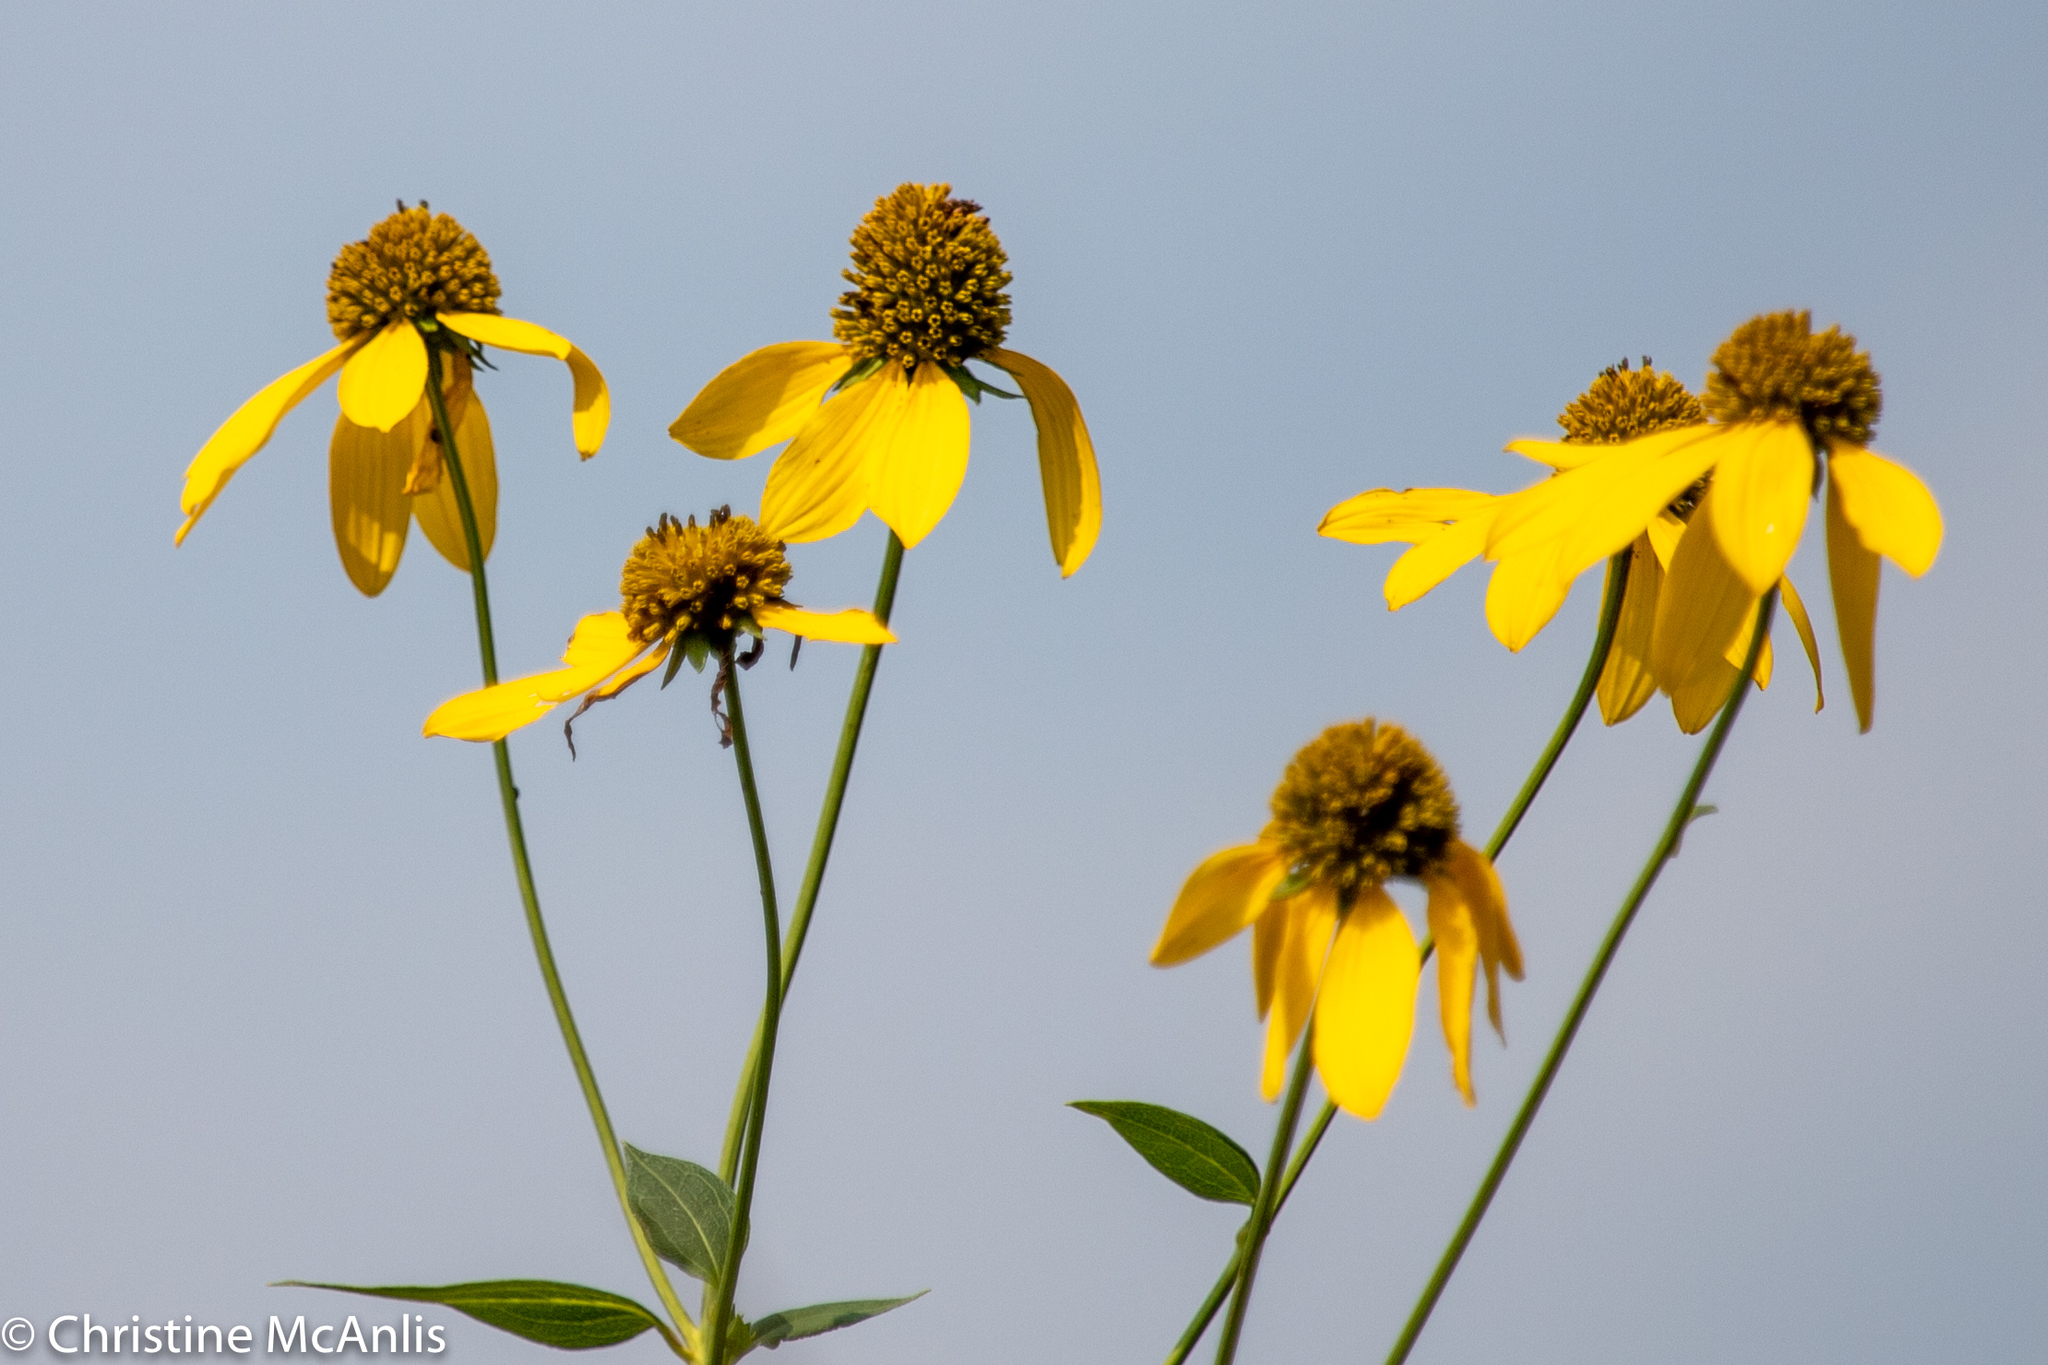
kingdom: Plantae
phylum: Tracheophyta
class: Magnoliopsida
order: Asterales
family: Asteraceae
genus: Rudbeckia
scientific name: Rudbeckia laciniata
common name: Coneflower
